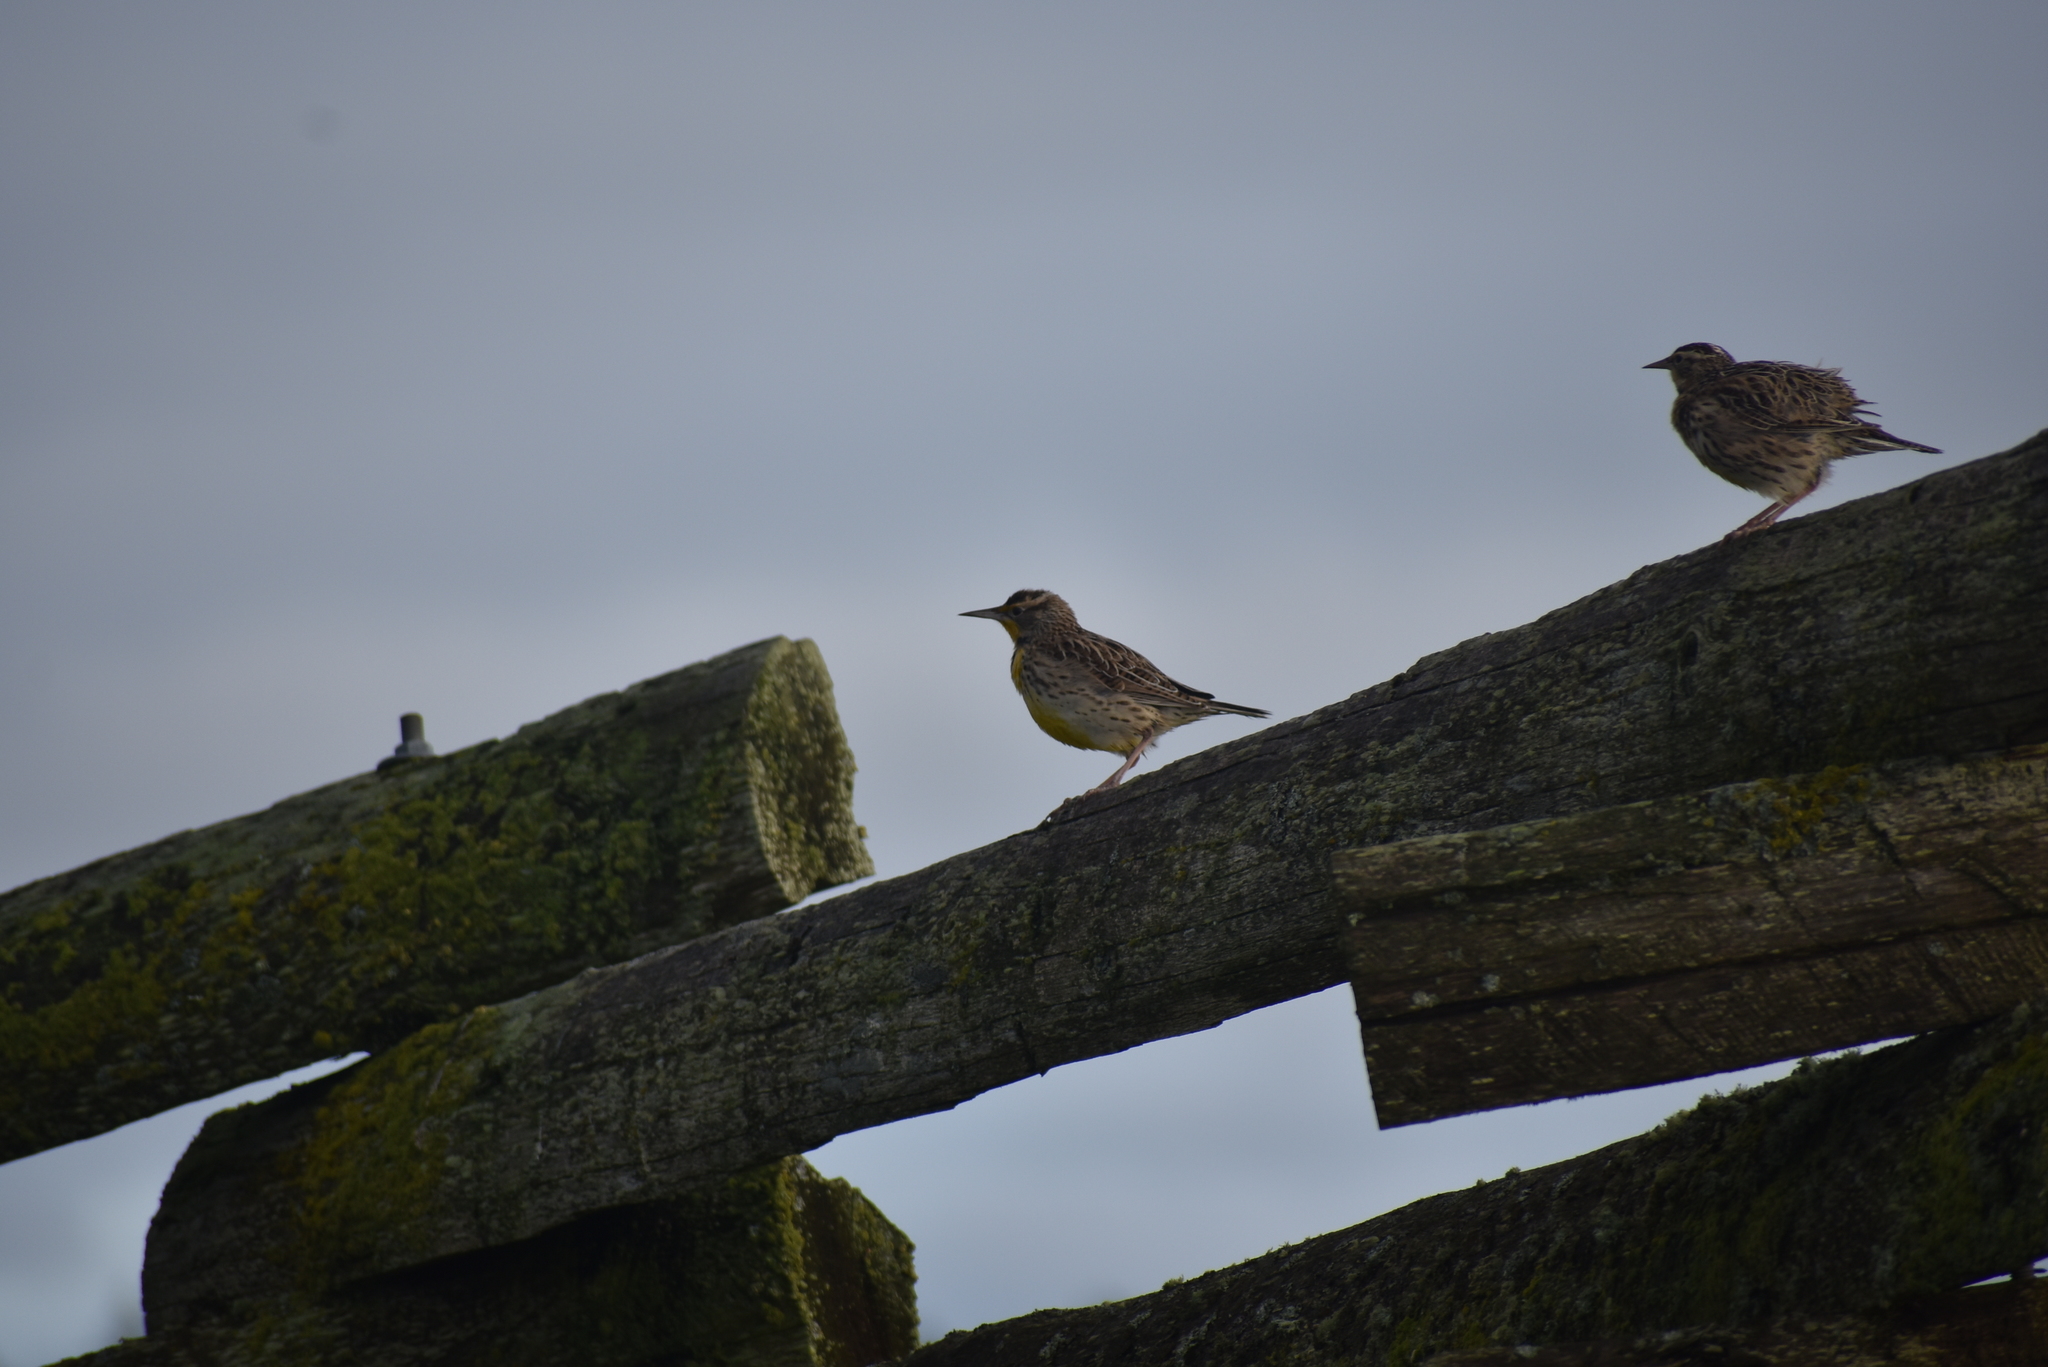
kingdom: Animalia
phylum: Chordata
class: Aves
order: Passeriformes
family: Icteridae
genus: Sturnella
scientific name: Sturnella neglecta
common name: Western meadowlark
